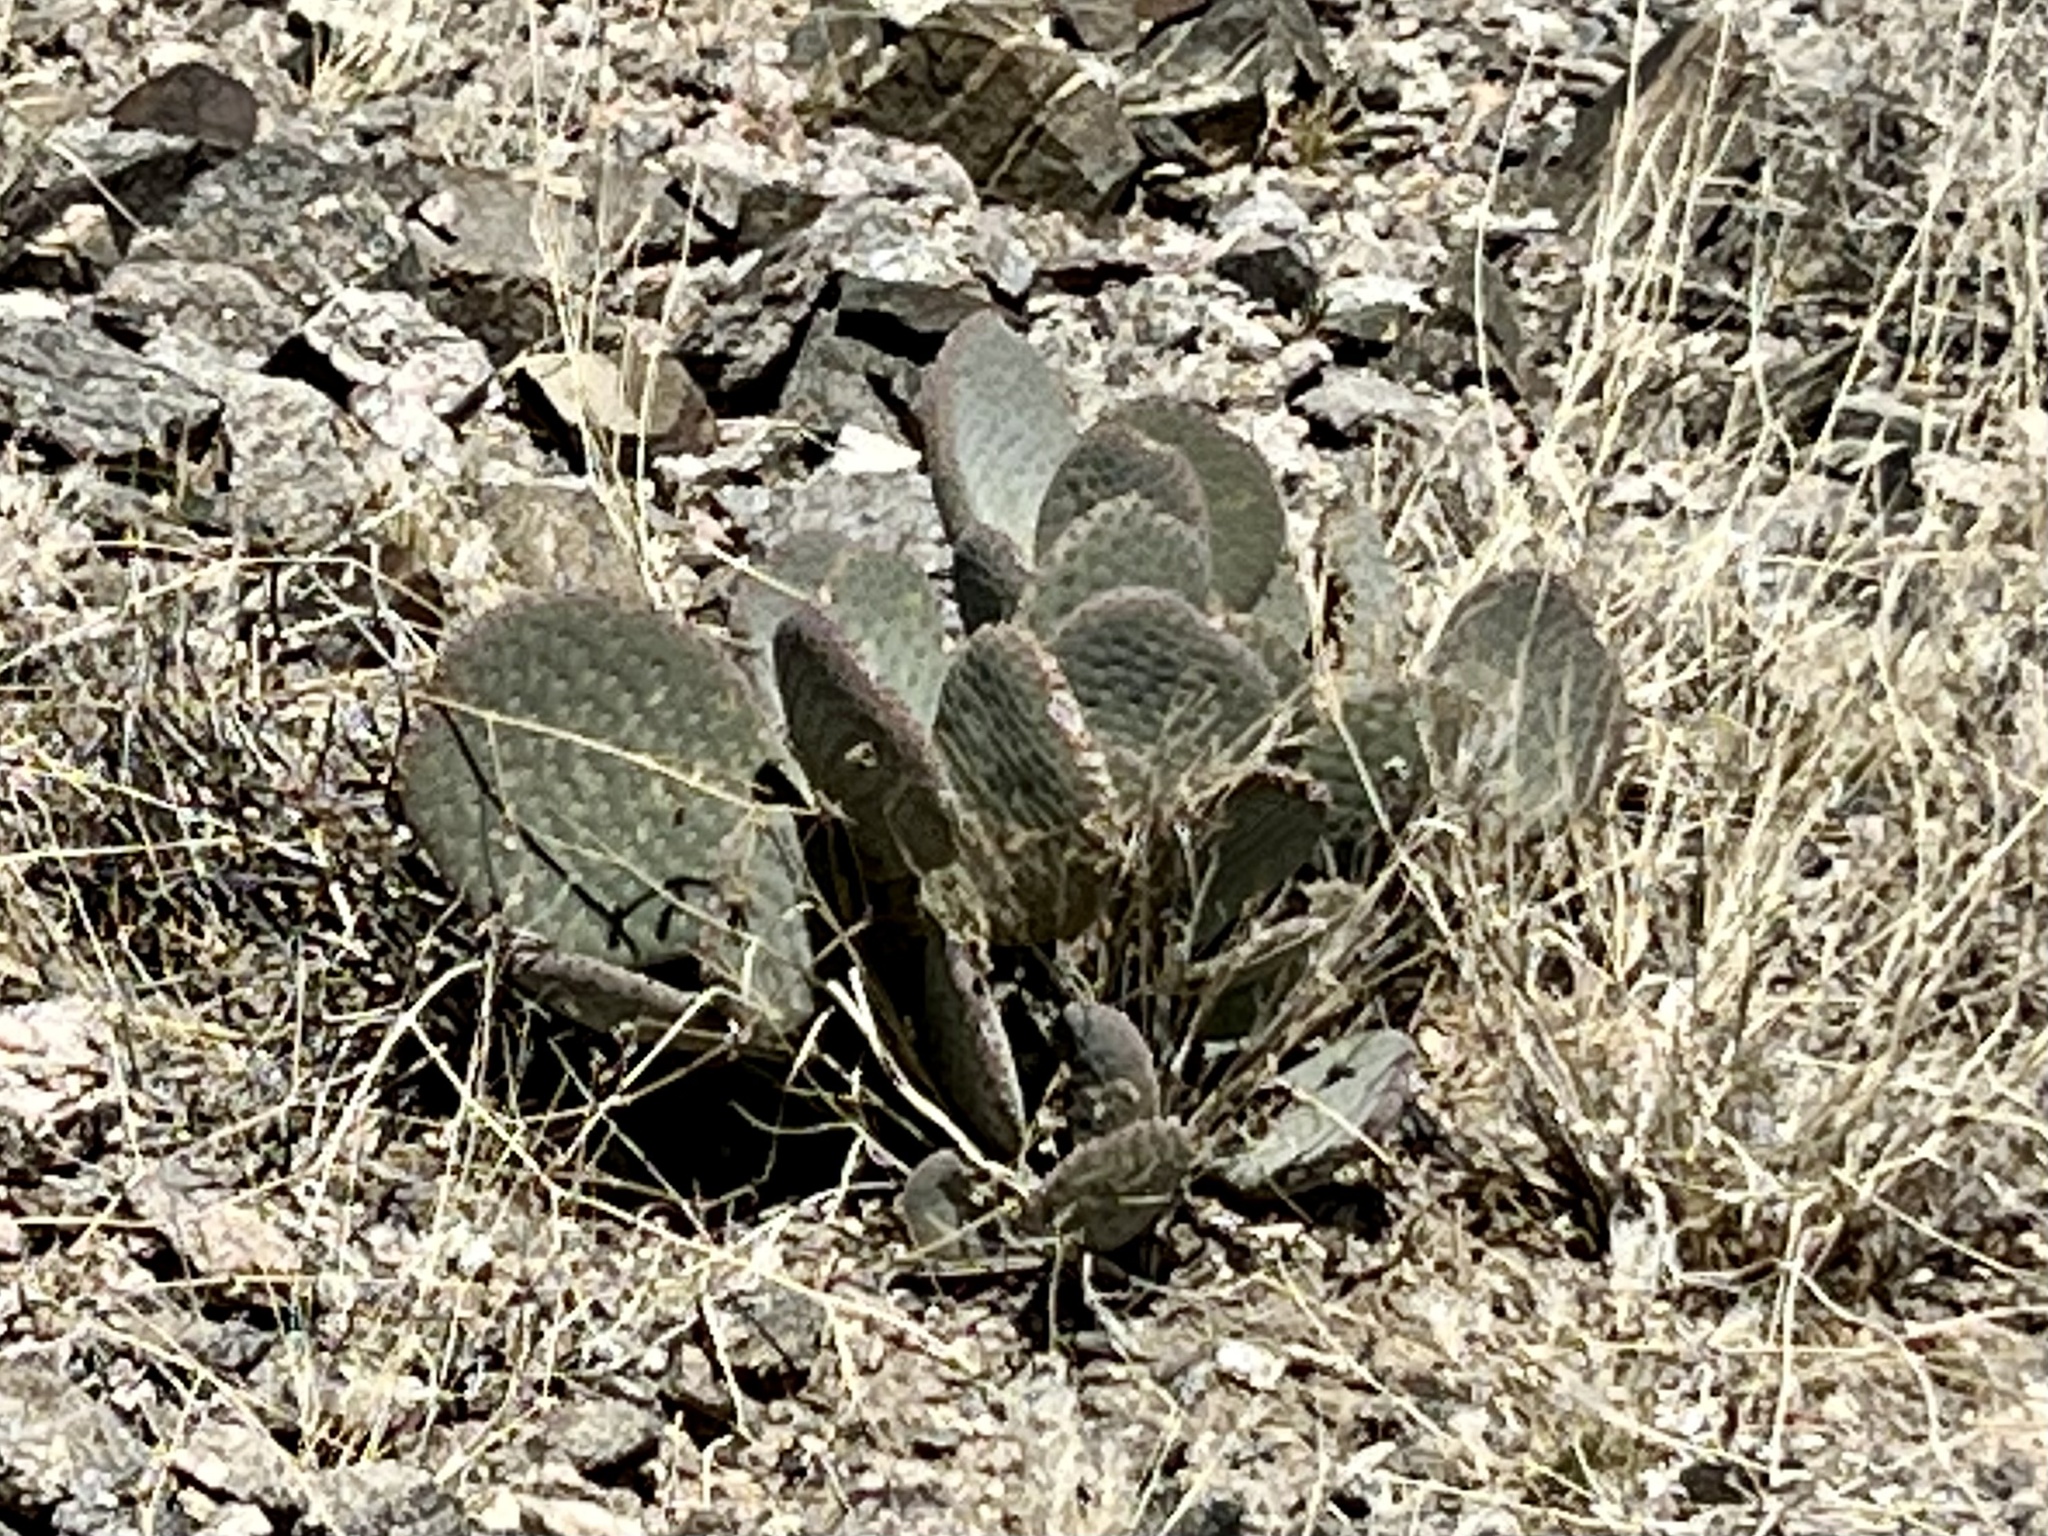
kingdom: Plantae
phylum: Tracheophyta
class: Magnoliopsida
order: Caryophyllales
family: Cactaceae
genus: Opuntia
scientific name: Opuntia basilaris
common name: Beavertail prickly-pear
